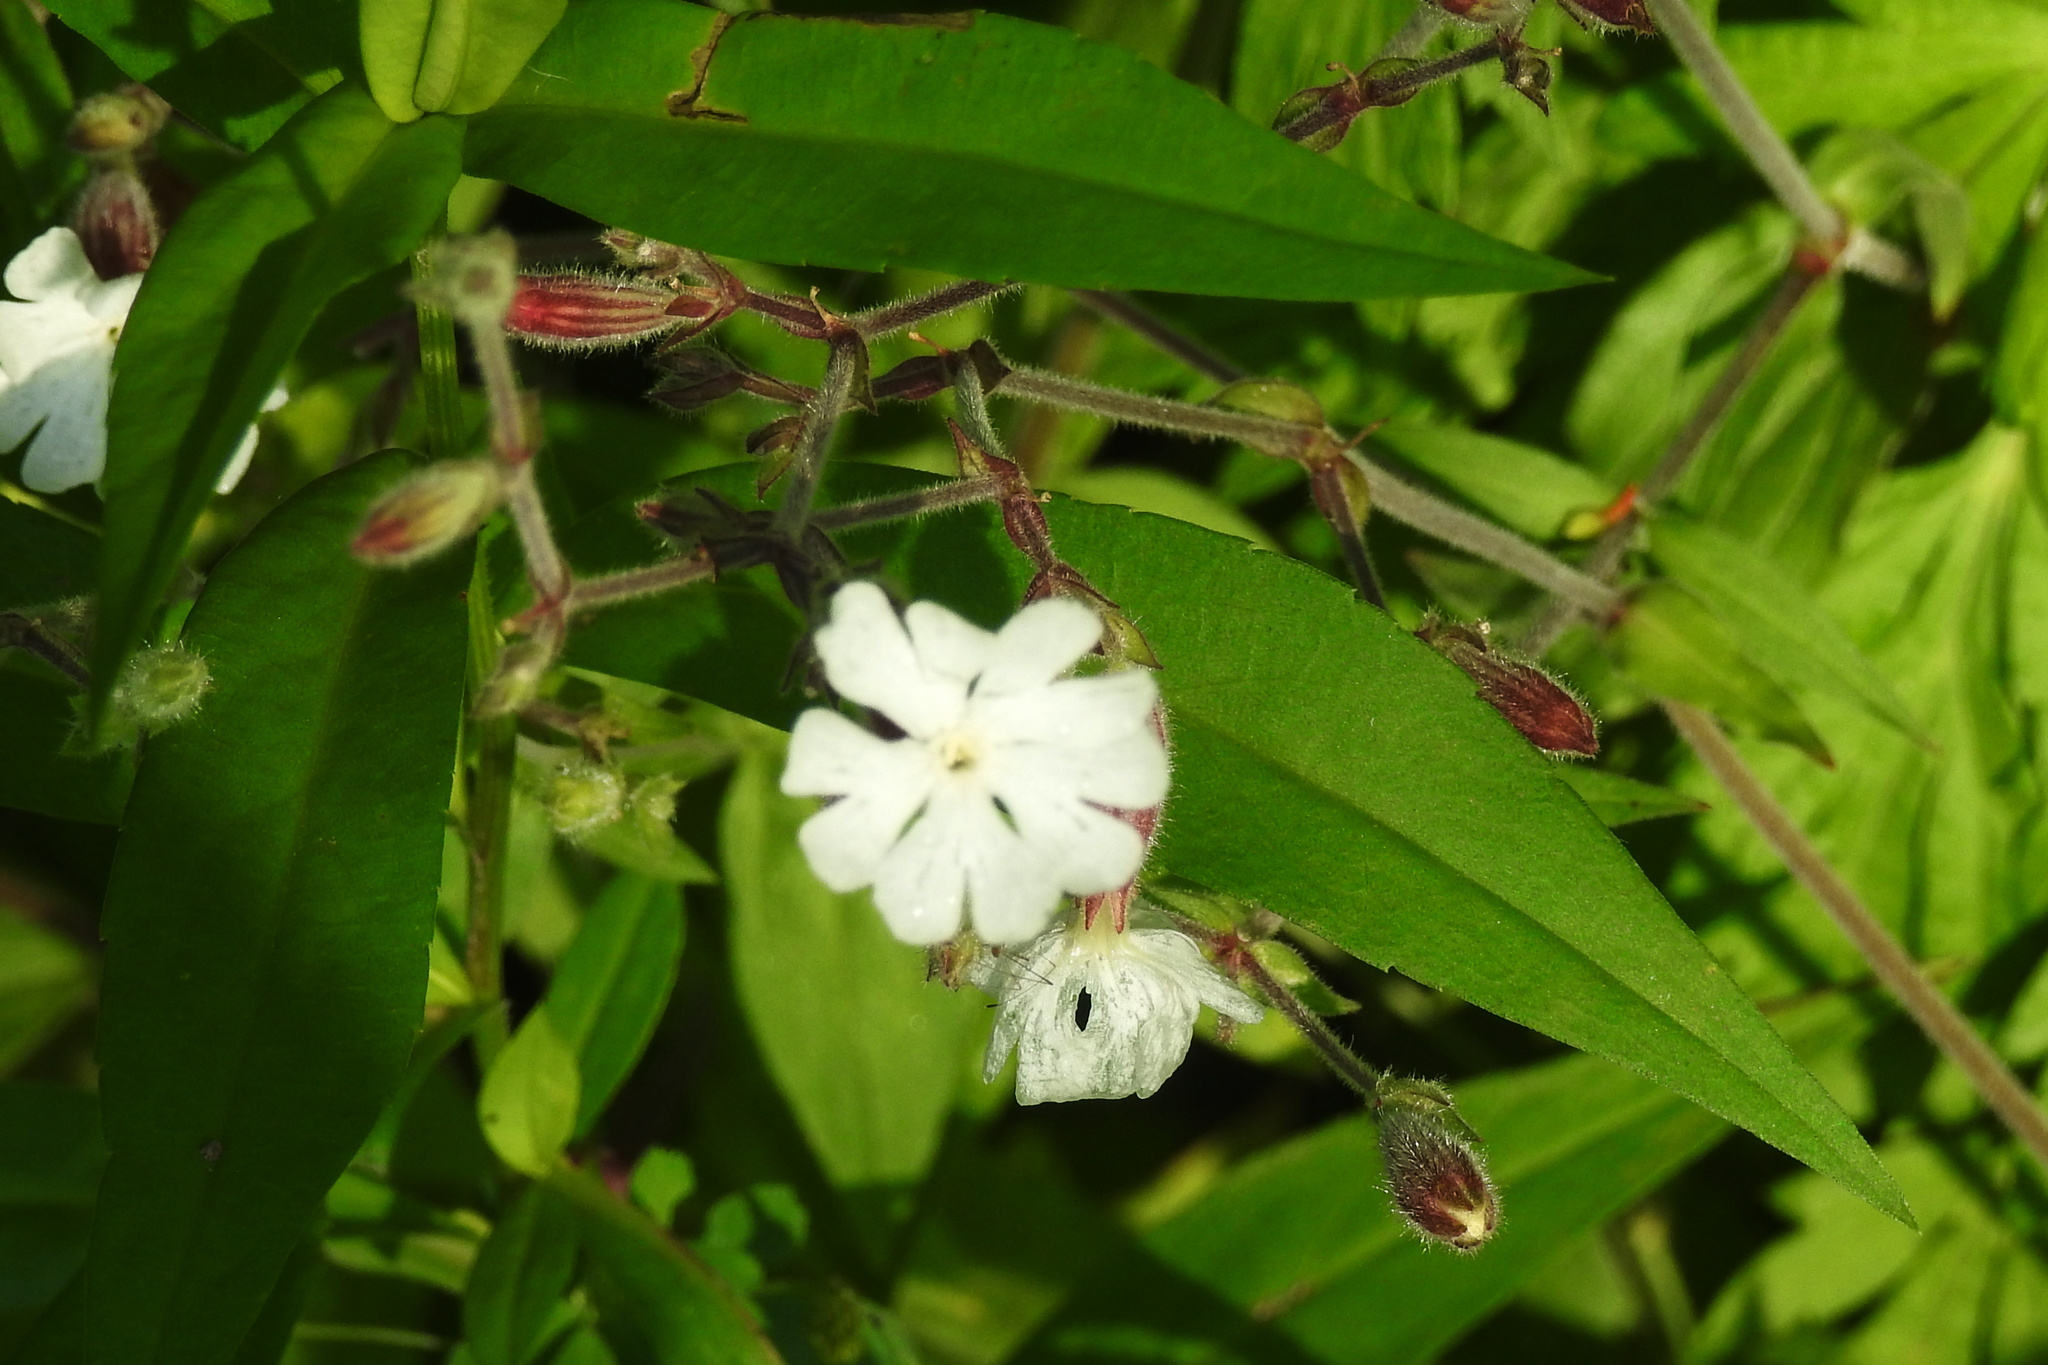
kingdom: Plantae
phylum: Tracheophyta
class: Magnoliopsida
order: Caryophyllales
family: Caryophyllaceae
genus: Silene
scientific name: Silene latifolia
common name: White campion
